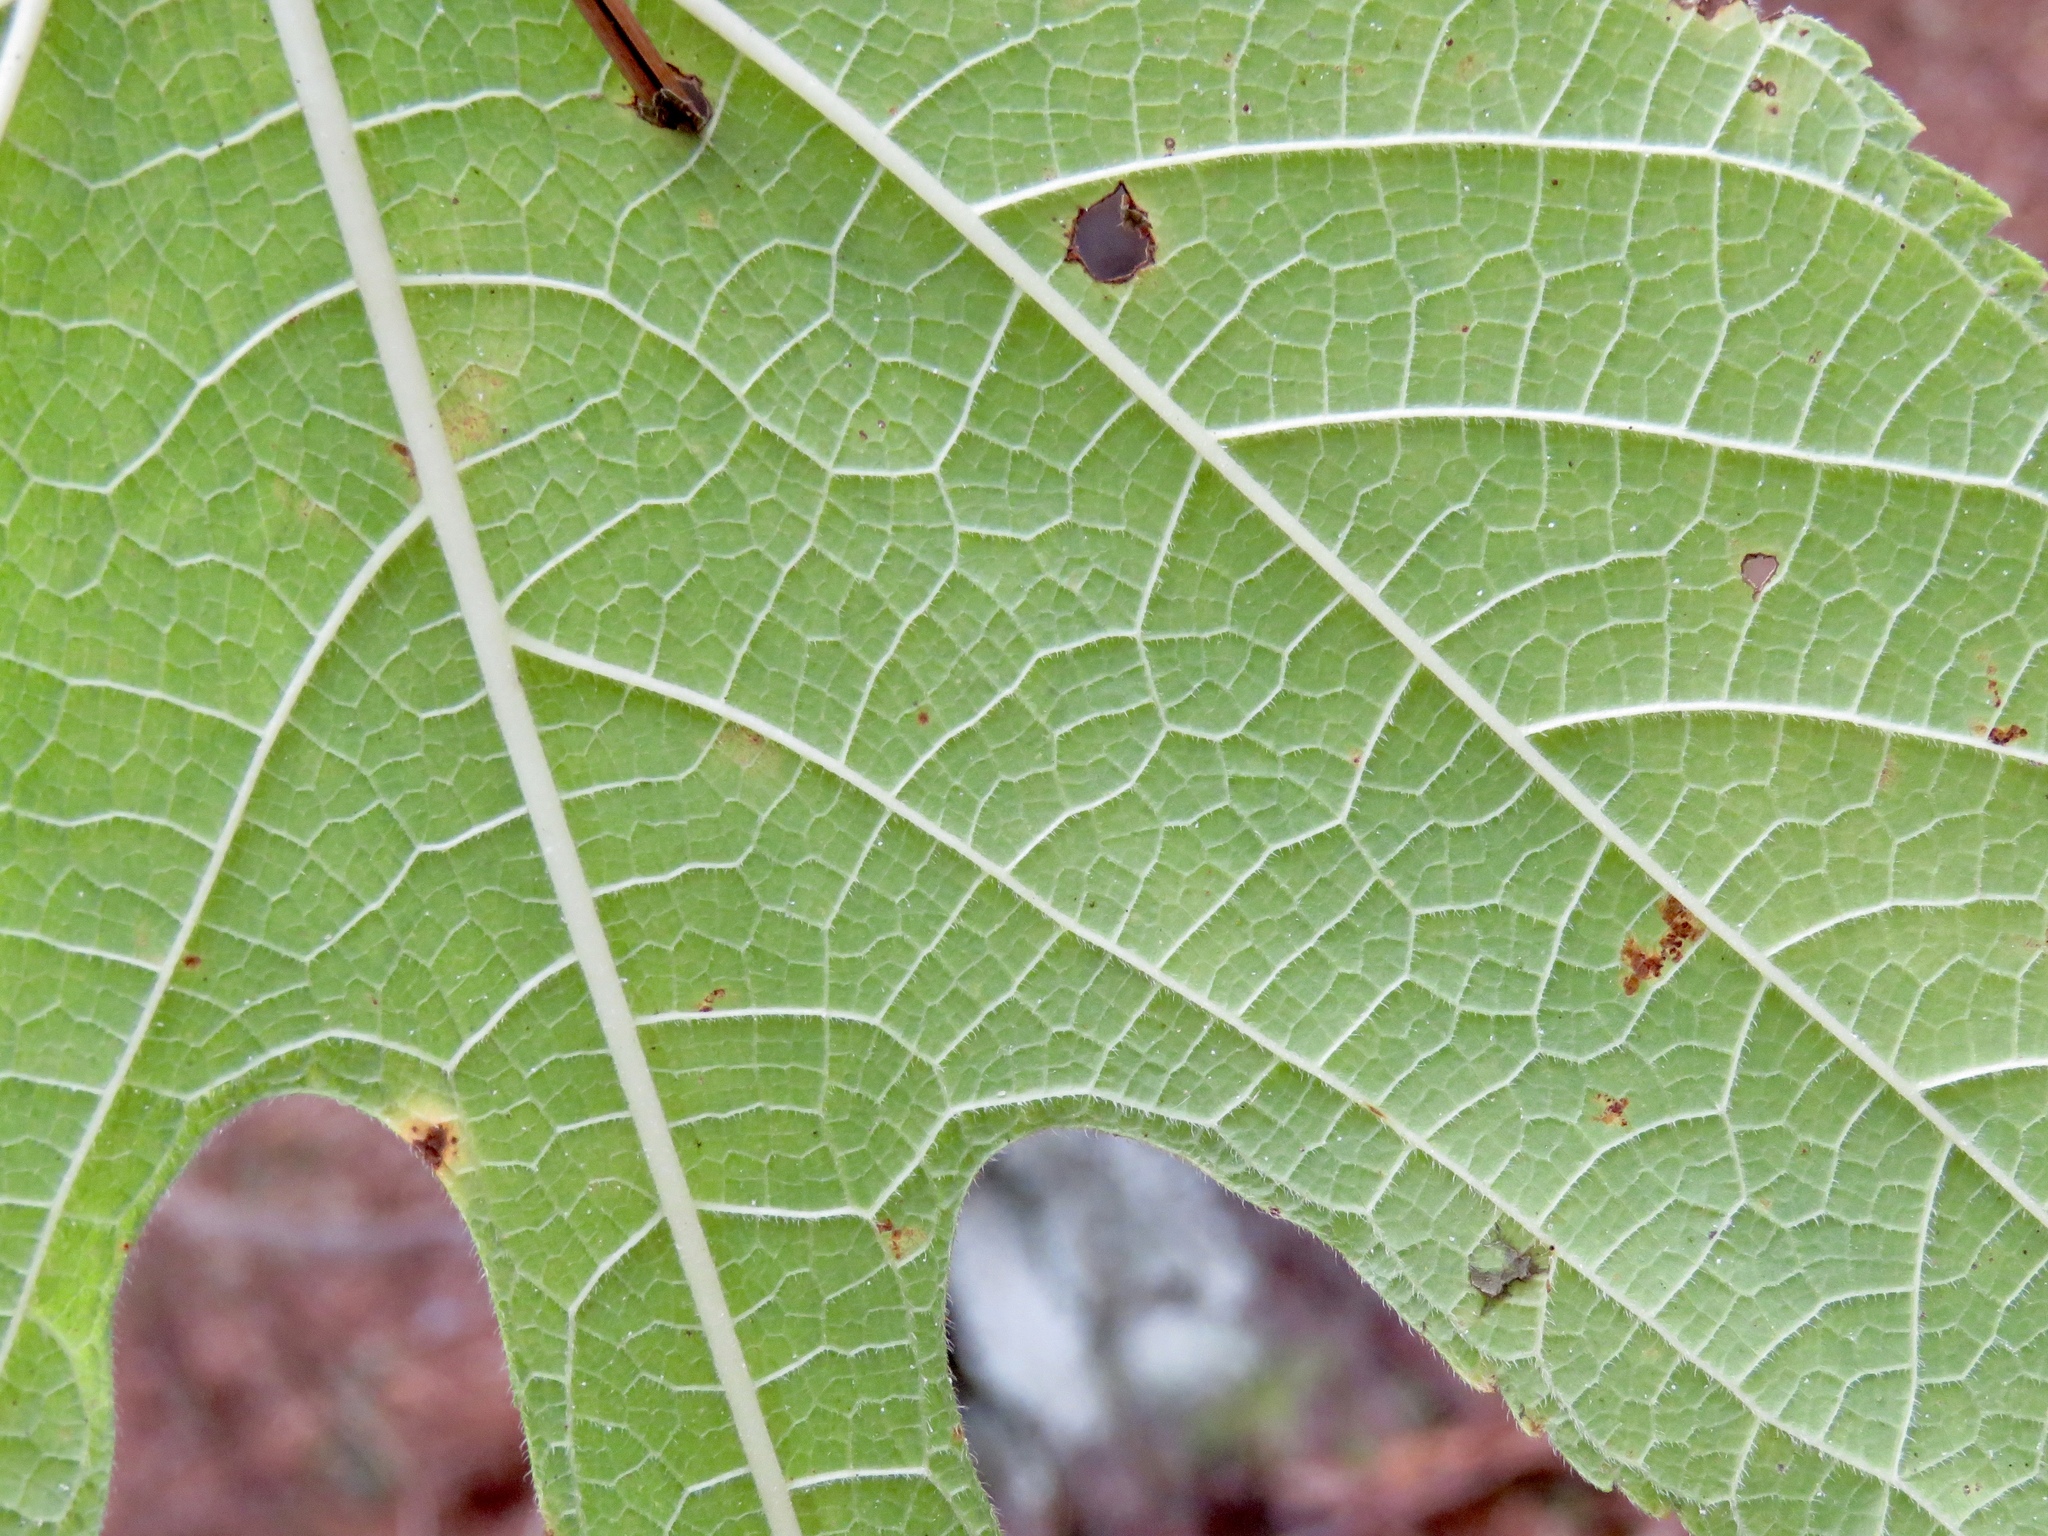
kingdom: Plantae
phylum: Tracheophyta
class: Magnoliopsida
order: Rosales
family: Moraceae
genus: Morus
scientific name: Morus rubra
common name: Red mulberry
